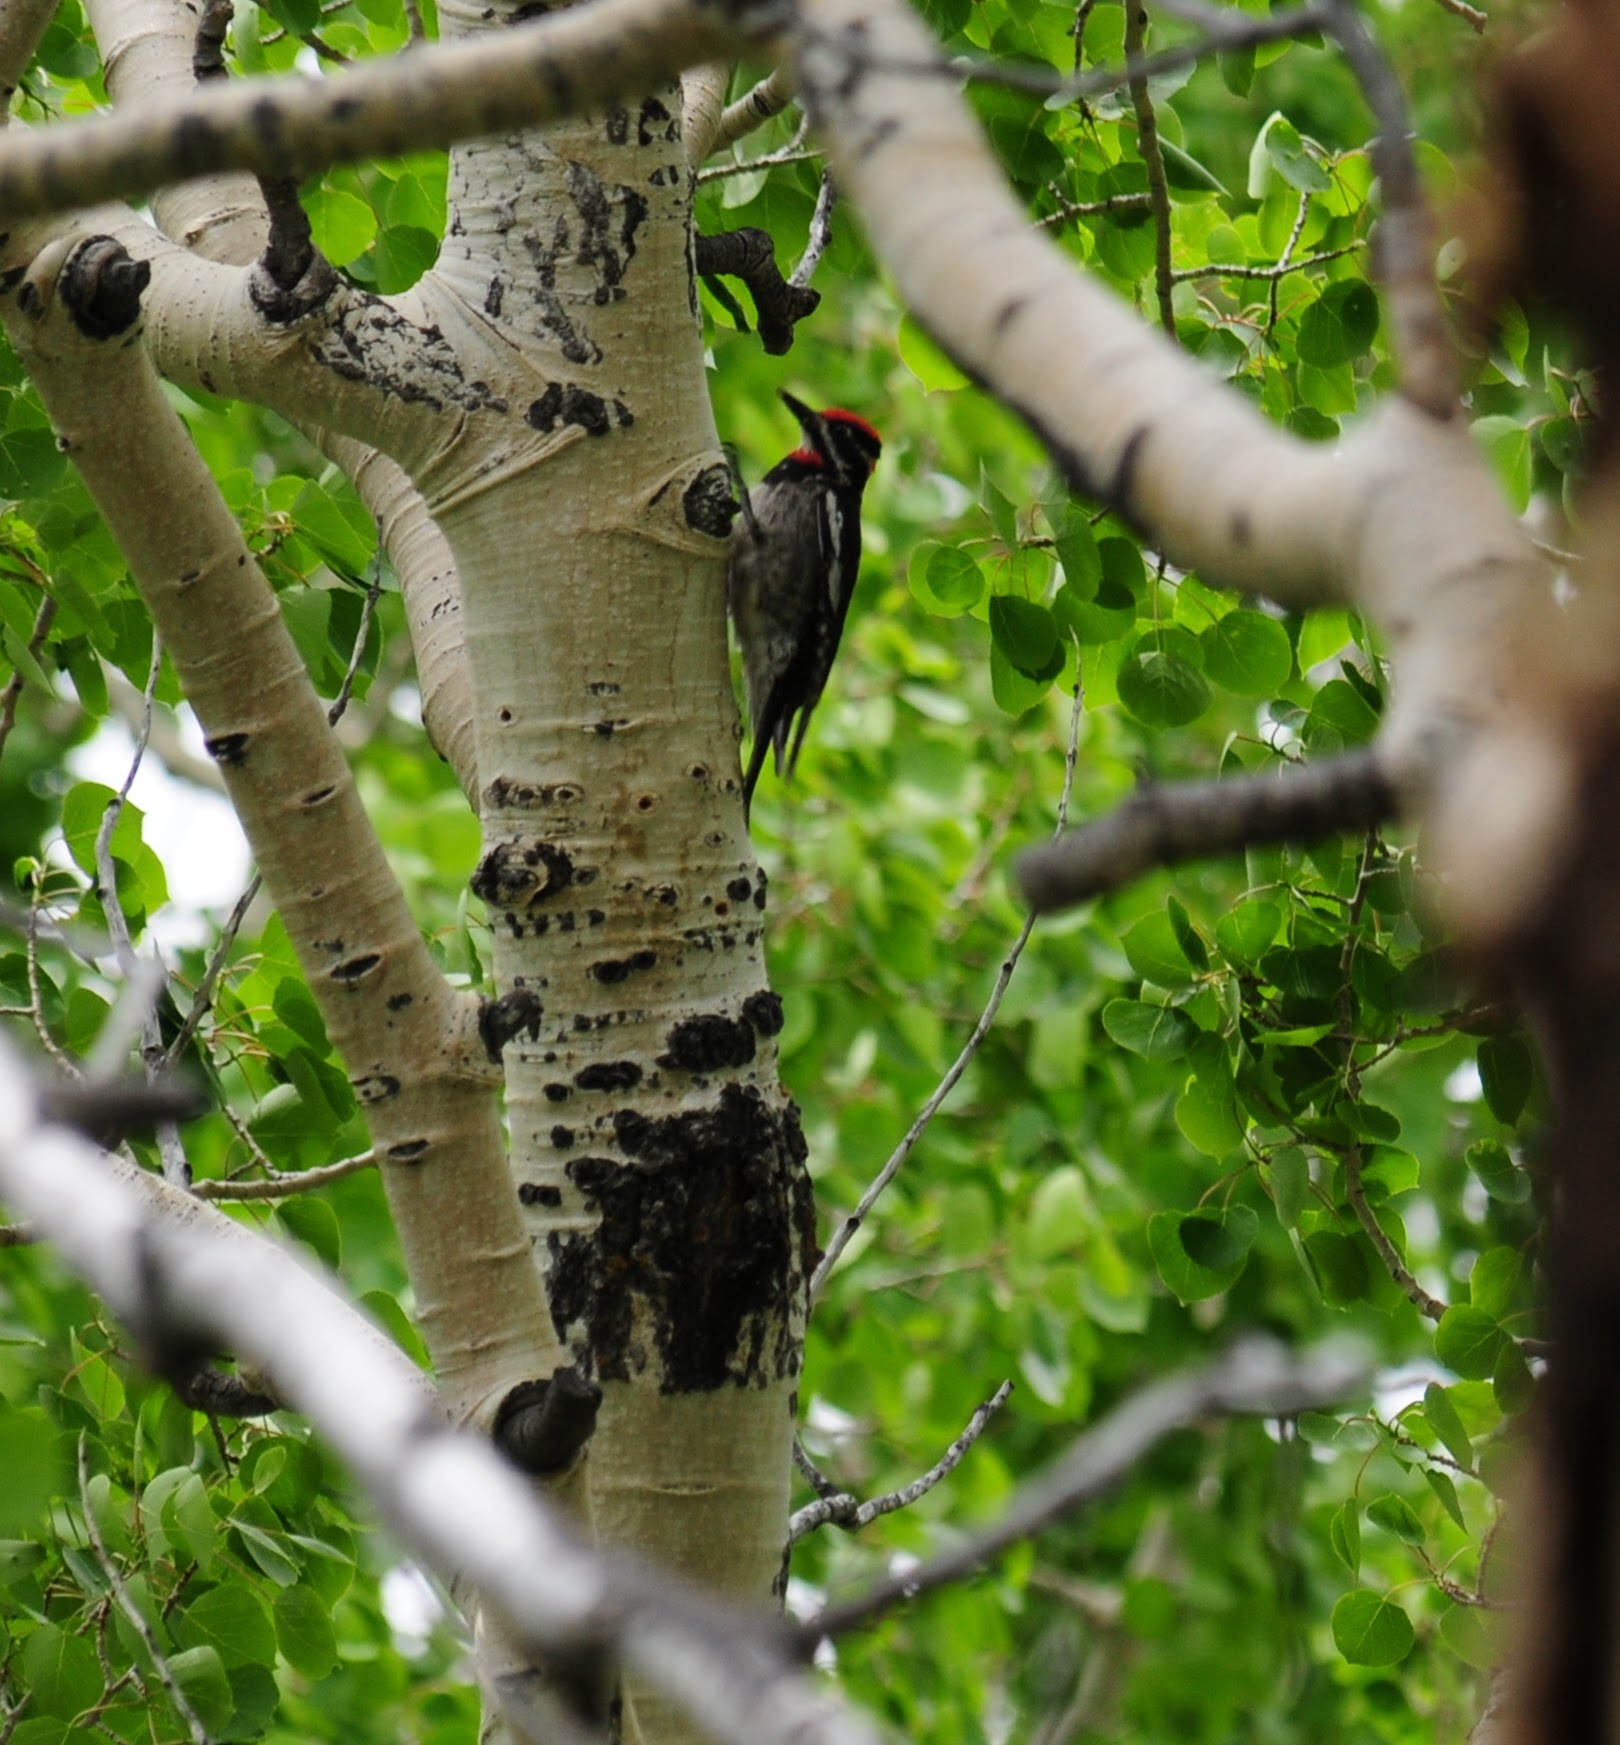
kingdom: Animalia
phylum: Chordata
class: Aves
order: Piciformes
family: Picidae
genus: Sphyrapicus
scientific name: Sphyrapicus nuchalis
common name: Red-naped sapsucker
